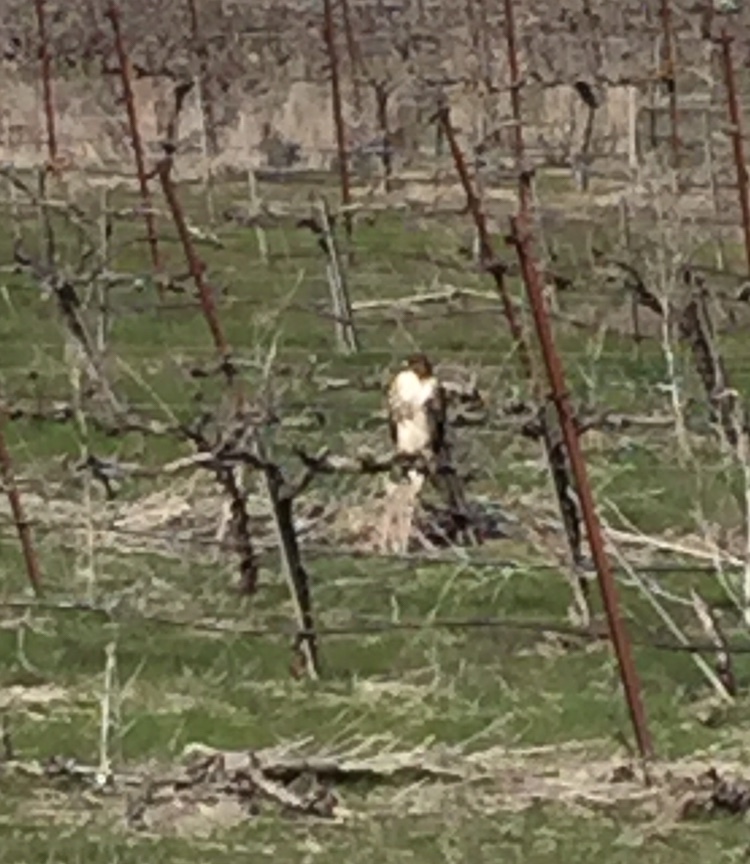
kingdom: Animalia
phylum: Chordata
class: Aves
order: Accipitriformes
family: Accipitridae
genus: Buteo
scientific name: Buteo jamaicensis
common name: Red-tailed hawk
